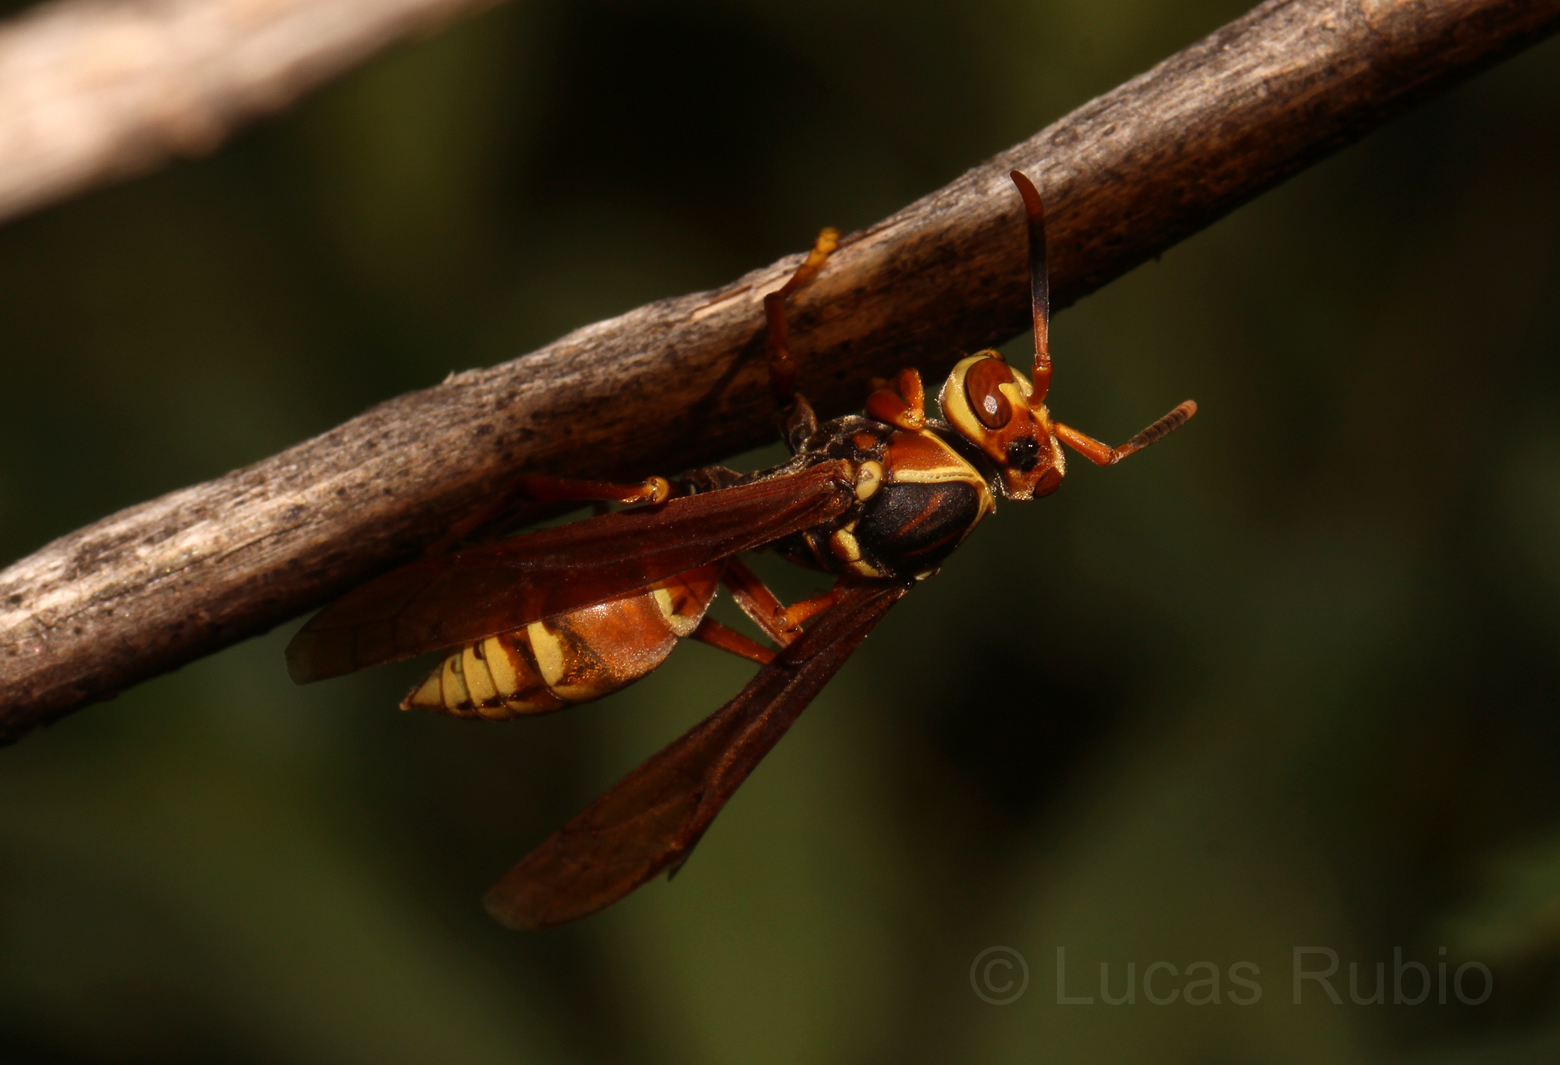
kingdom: Animalia
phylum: Arthropoda
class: Insecta
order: Hymenoptera
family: Eumenidae
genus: Polistes
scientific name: Polistes buyssoni
